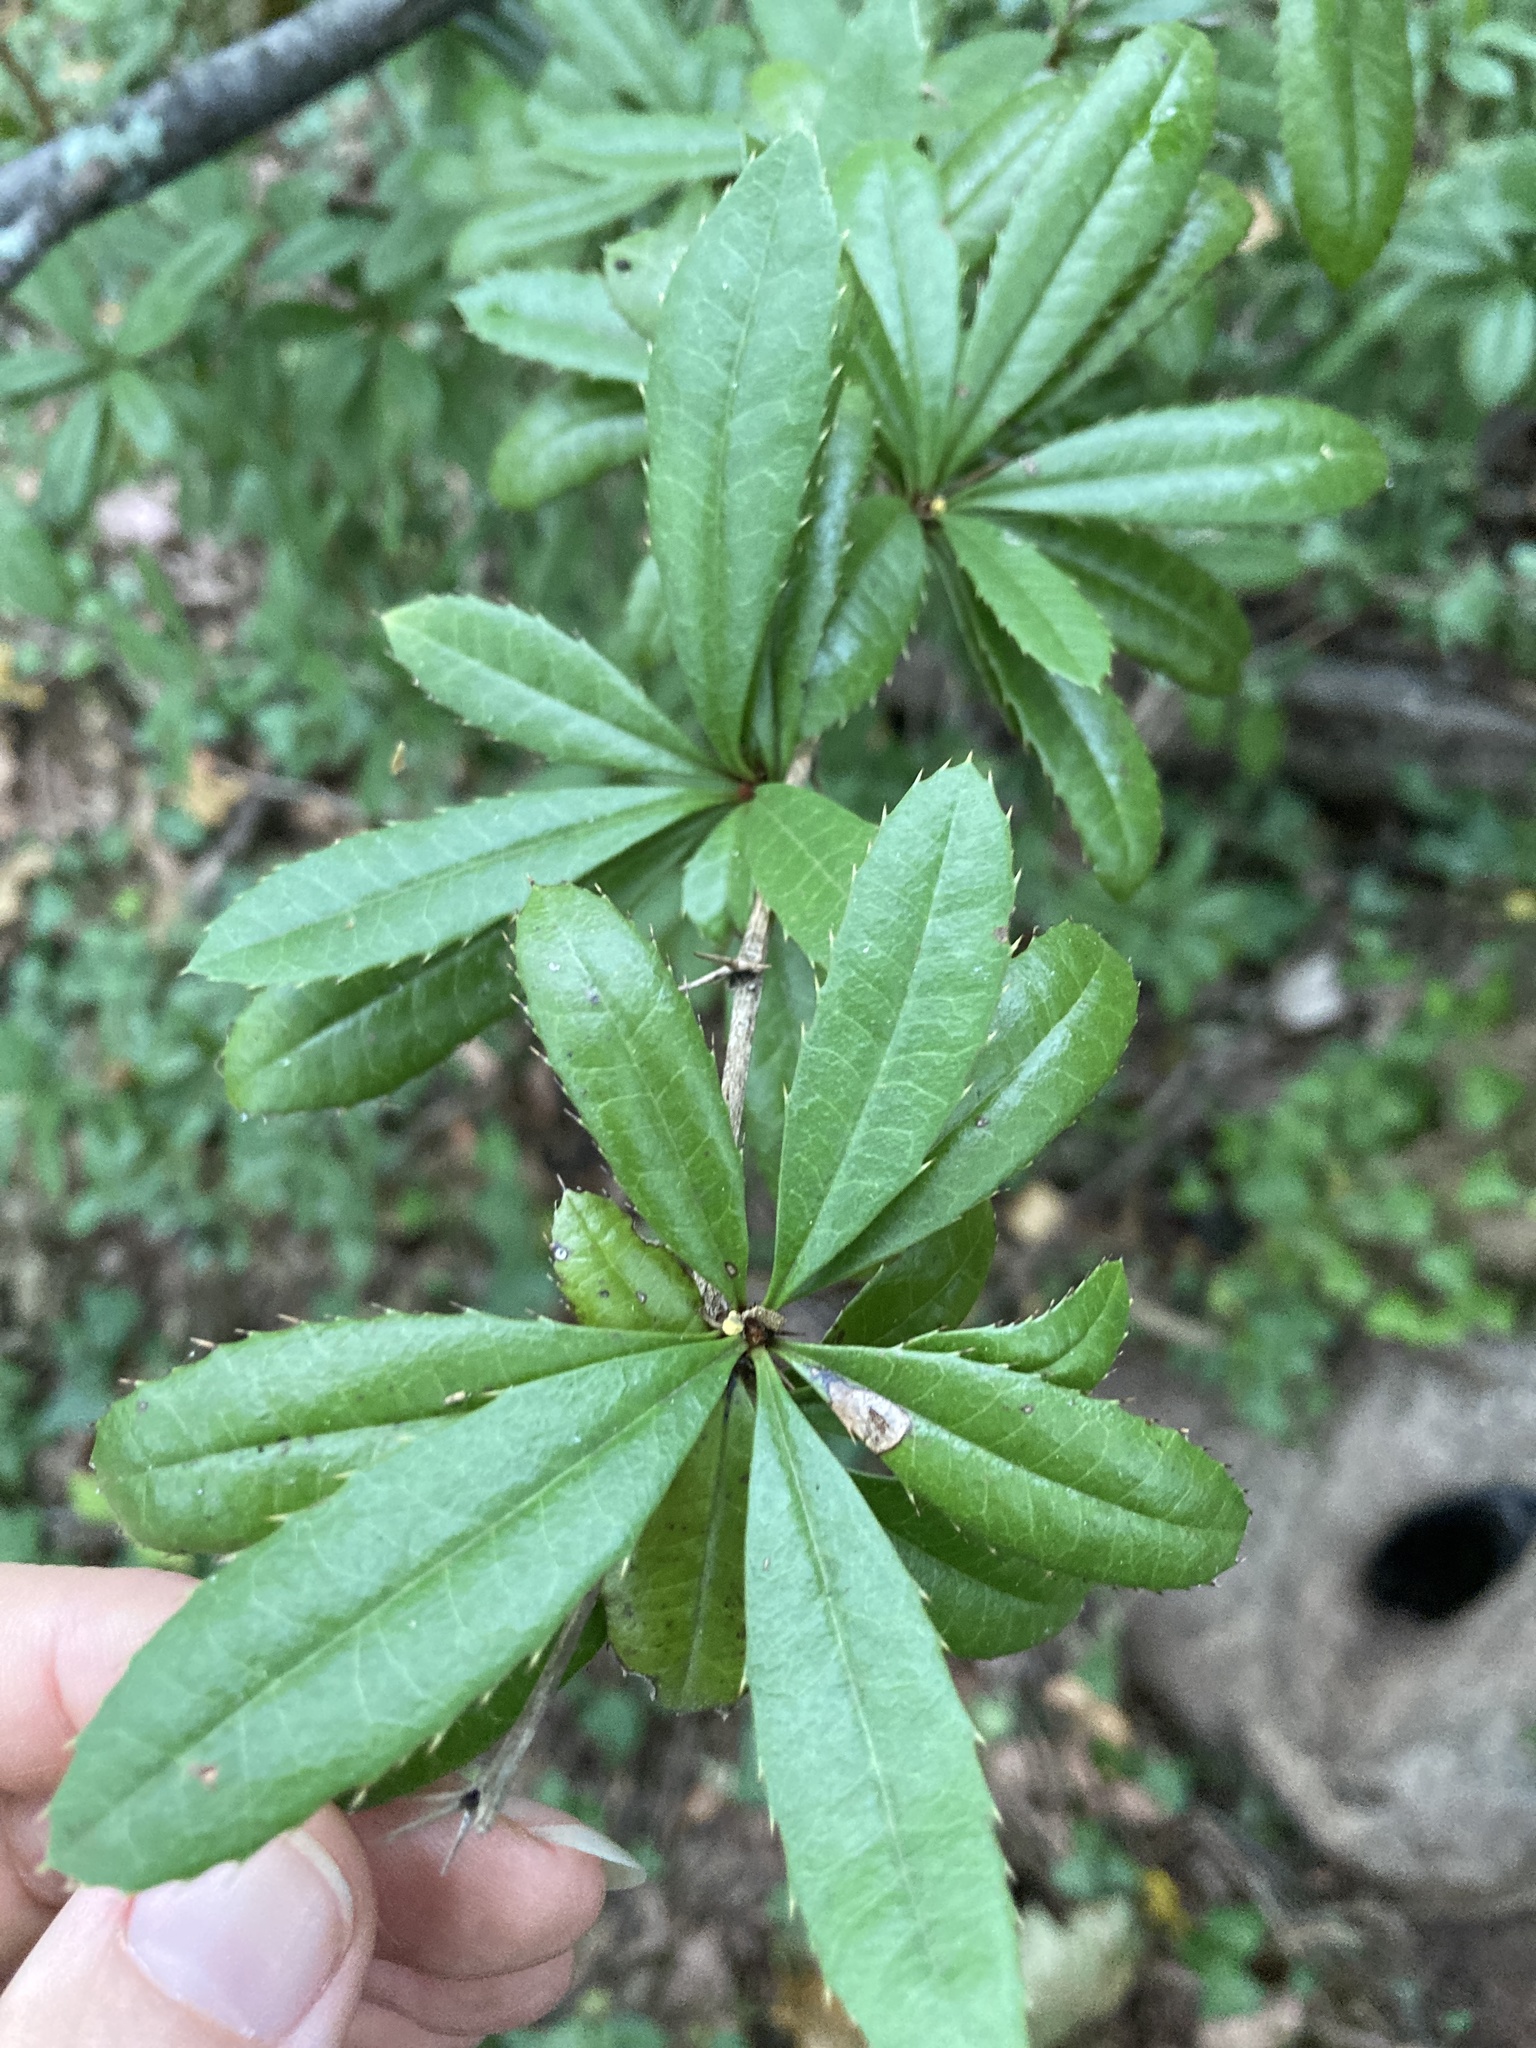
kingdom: Plantae
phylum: Tracheophyta
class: Magnoliopsida
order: Ranunculales
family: Berberidaceae
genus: Berberis
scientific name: Berberis julianae
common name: Wintergreen barberry
